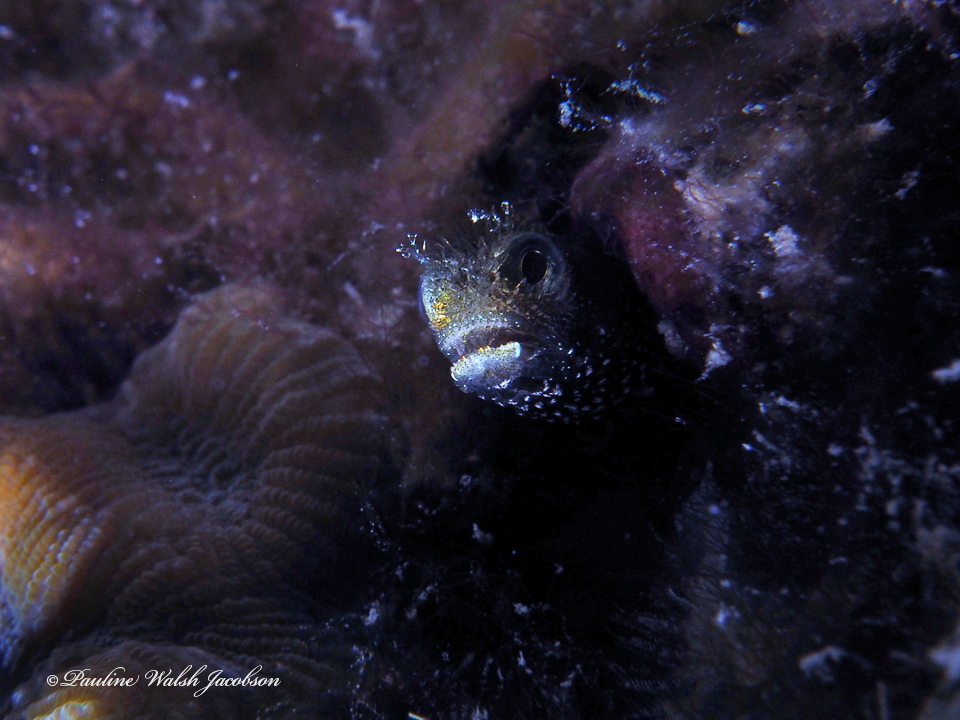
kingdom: Animalia
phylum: Chordata
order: Perciformes
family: Chaenopsidae
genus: Acanthemblemaria
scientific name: Acanthemblemaria spinosa
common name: Spinyhead blenny
